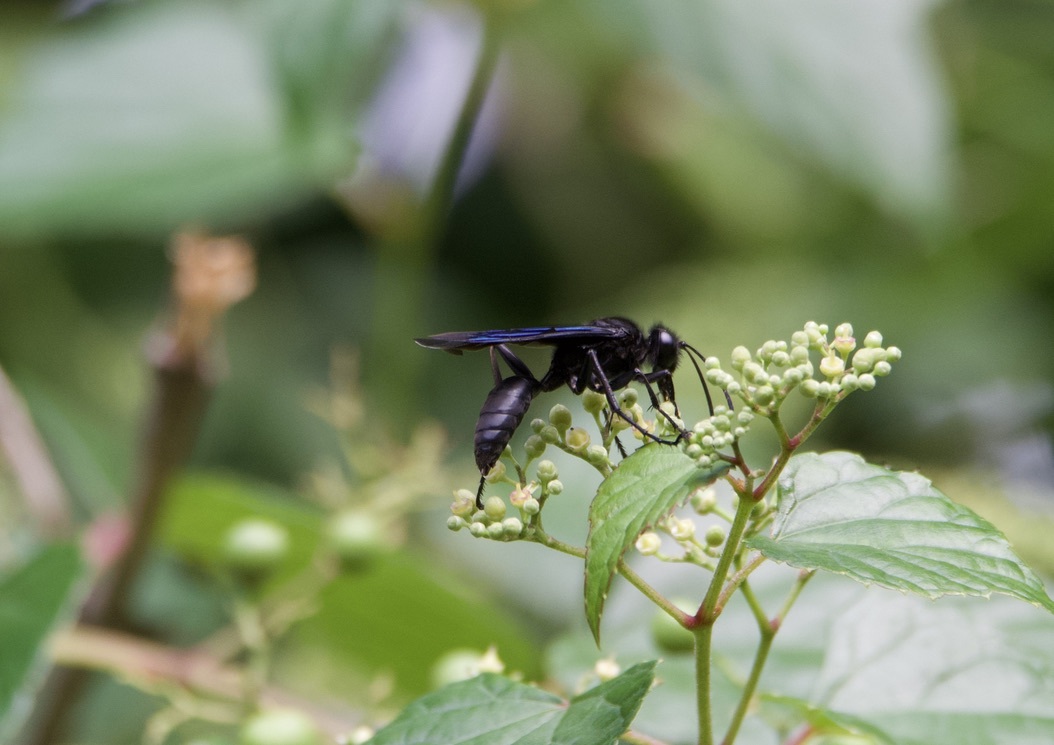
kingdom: Animalia
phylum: Arthropoda
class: Insecta
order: Hymenoptera
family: Sphecidae
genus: Sphex
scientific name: Sphex pensylvanicus
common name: Great black digger wasp
